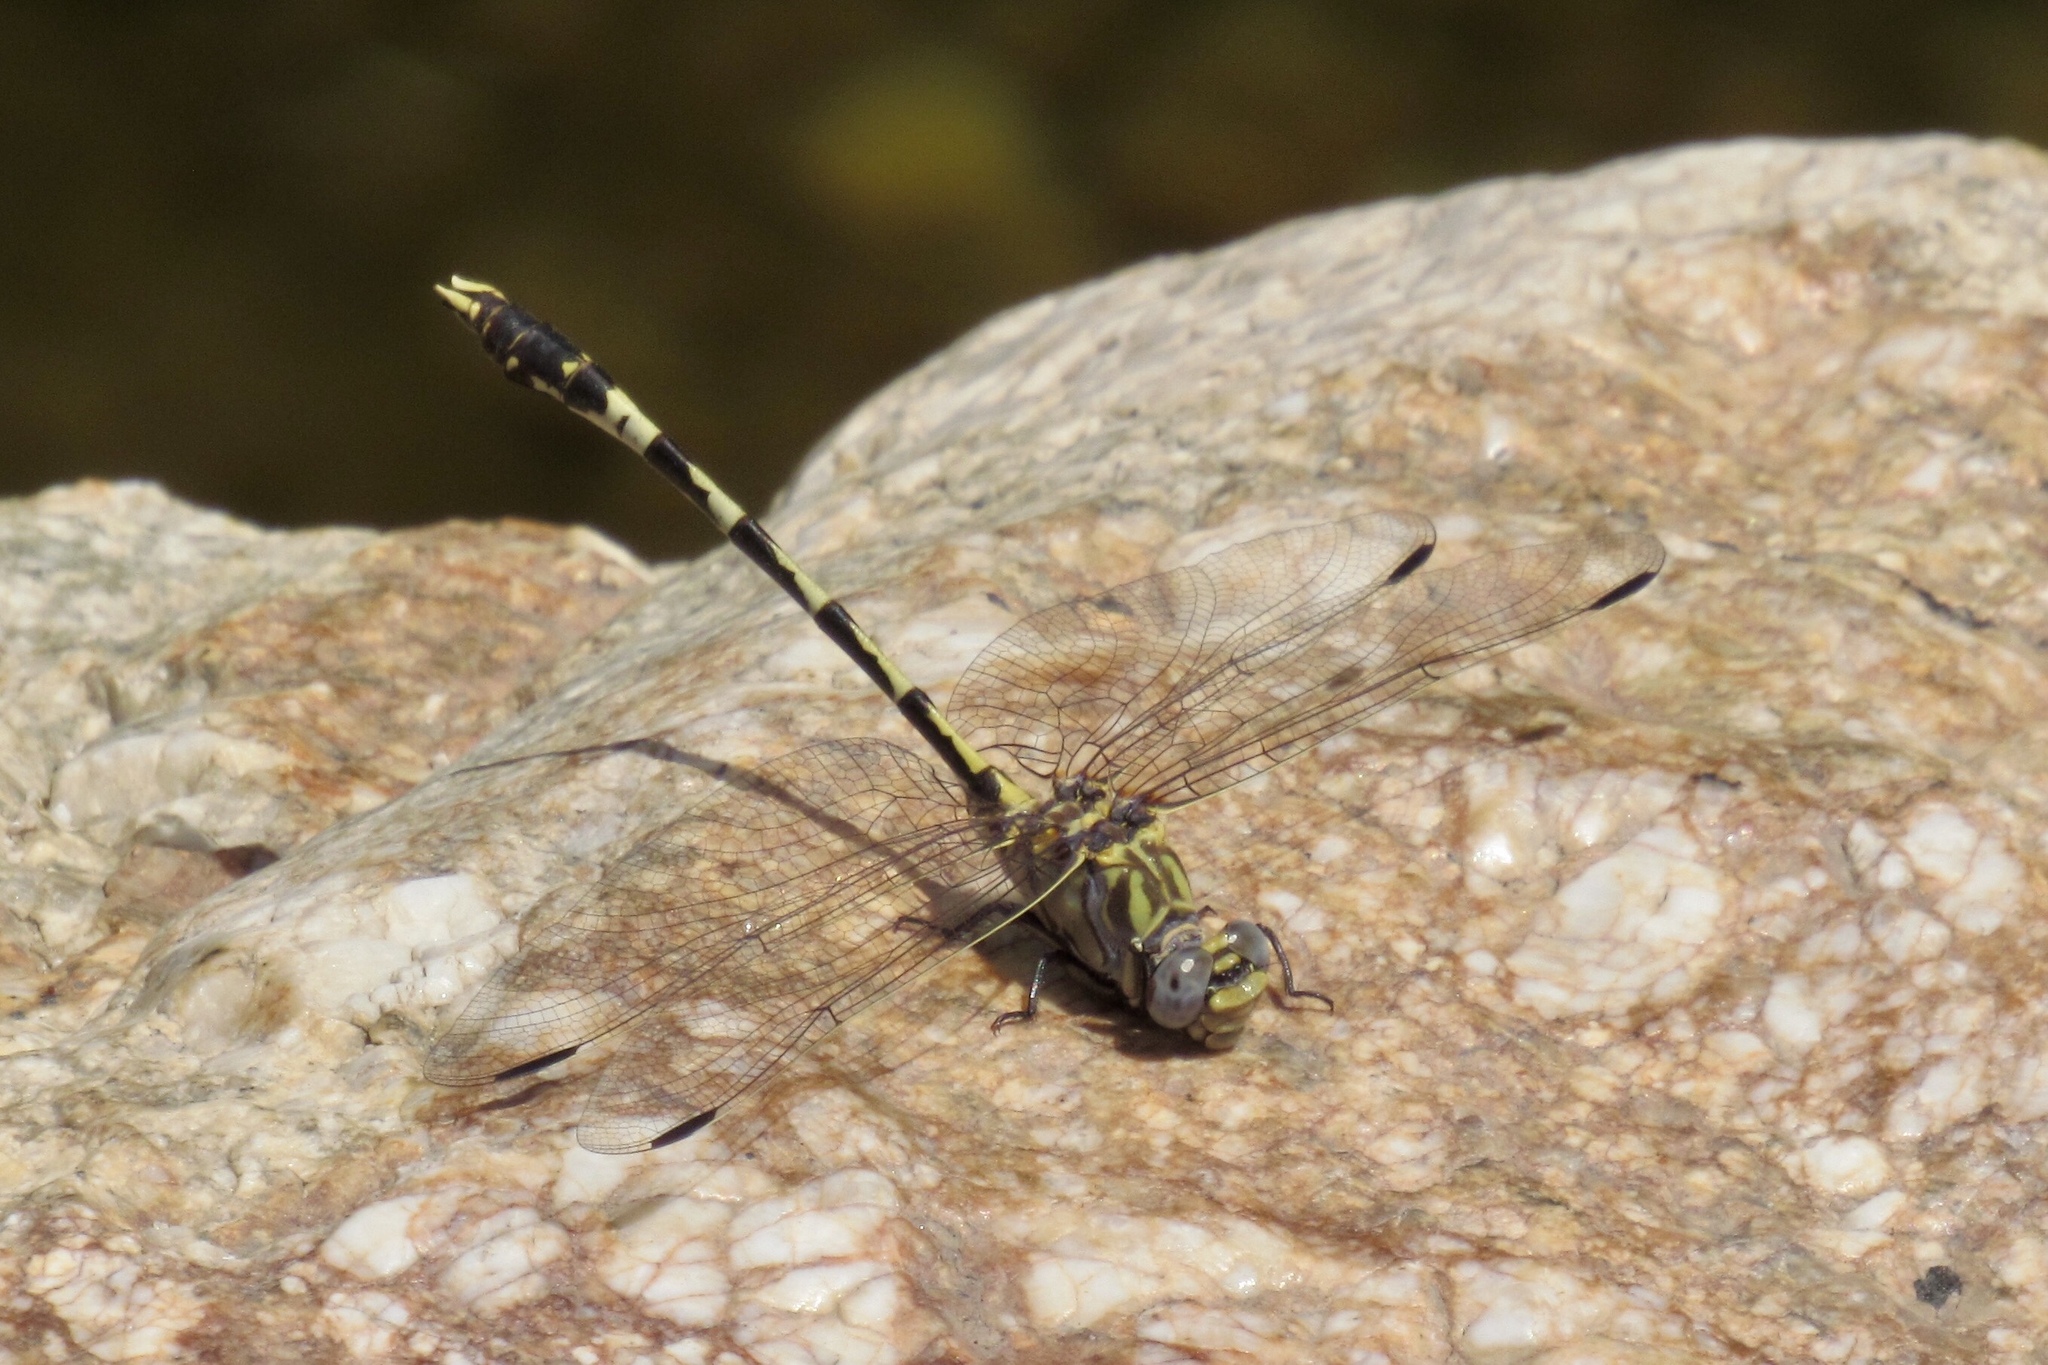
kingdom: Animalia
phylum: Arthropoda
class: Insecta
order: Odonata
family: Gomphidae
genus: Progomphus
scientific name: Progomphus borealis
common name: Gray sanddragon
